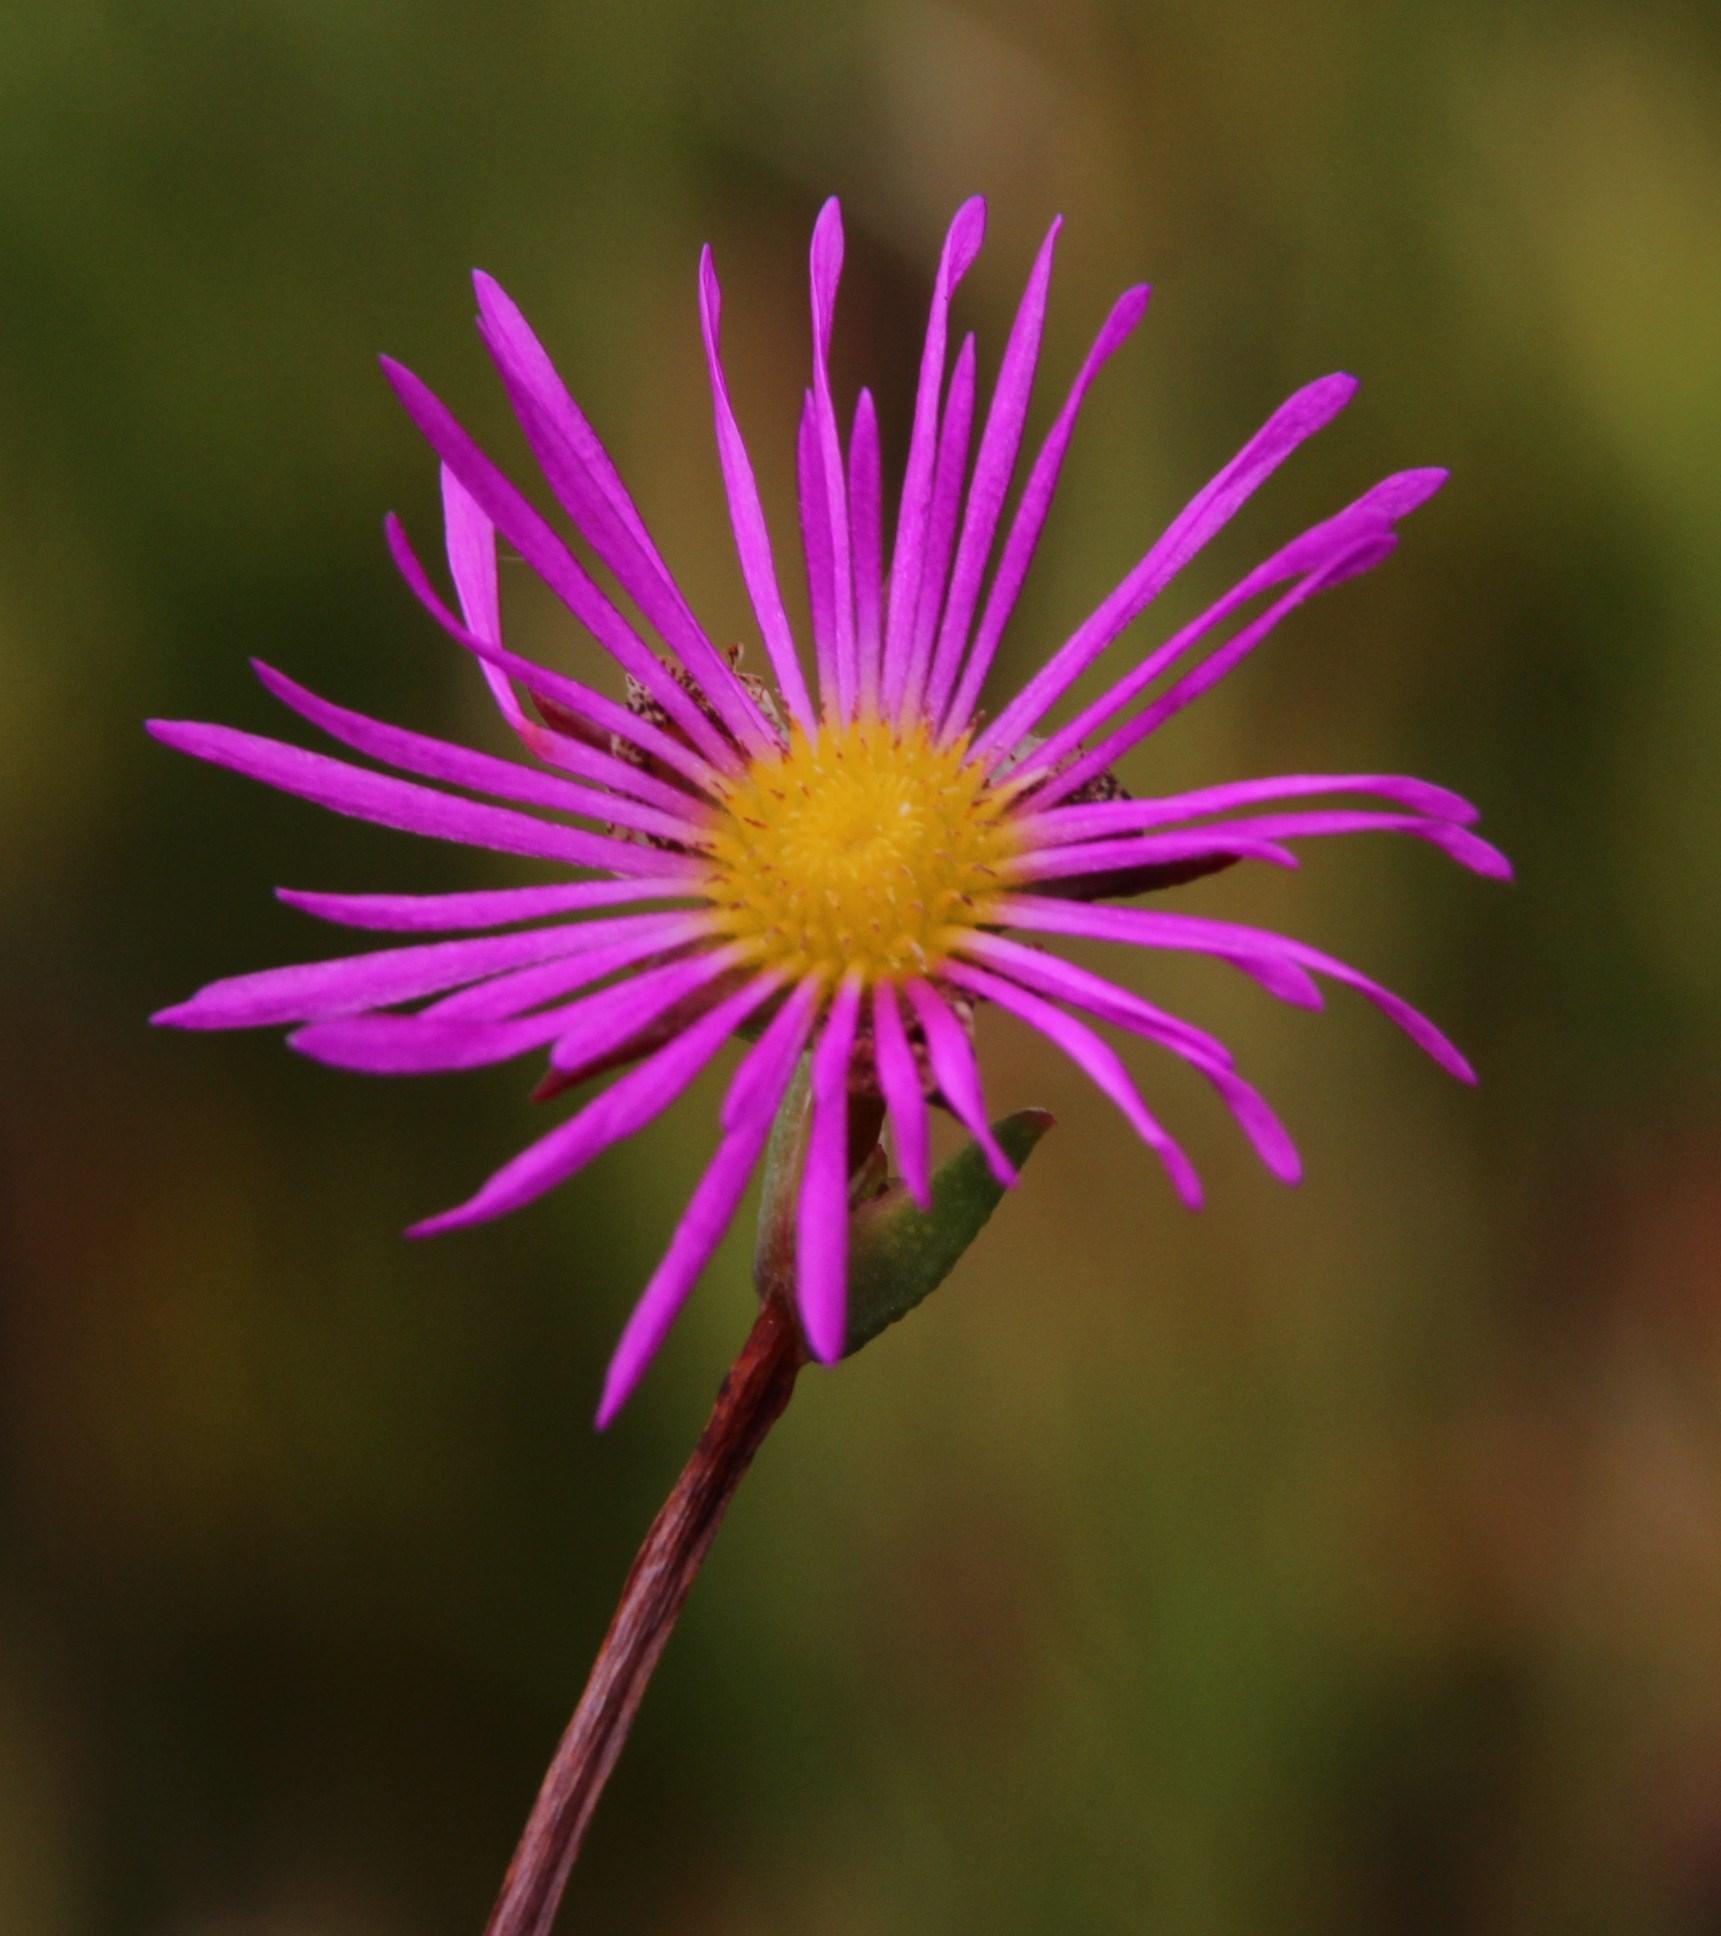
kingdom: Plantae
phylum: Tracheophyta
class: Magnoliopsida
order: Caryophyllales
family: Aizoaceae
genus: Erepsia
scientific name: Erepsia anceps
